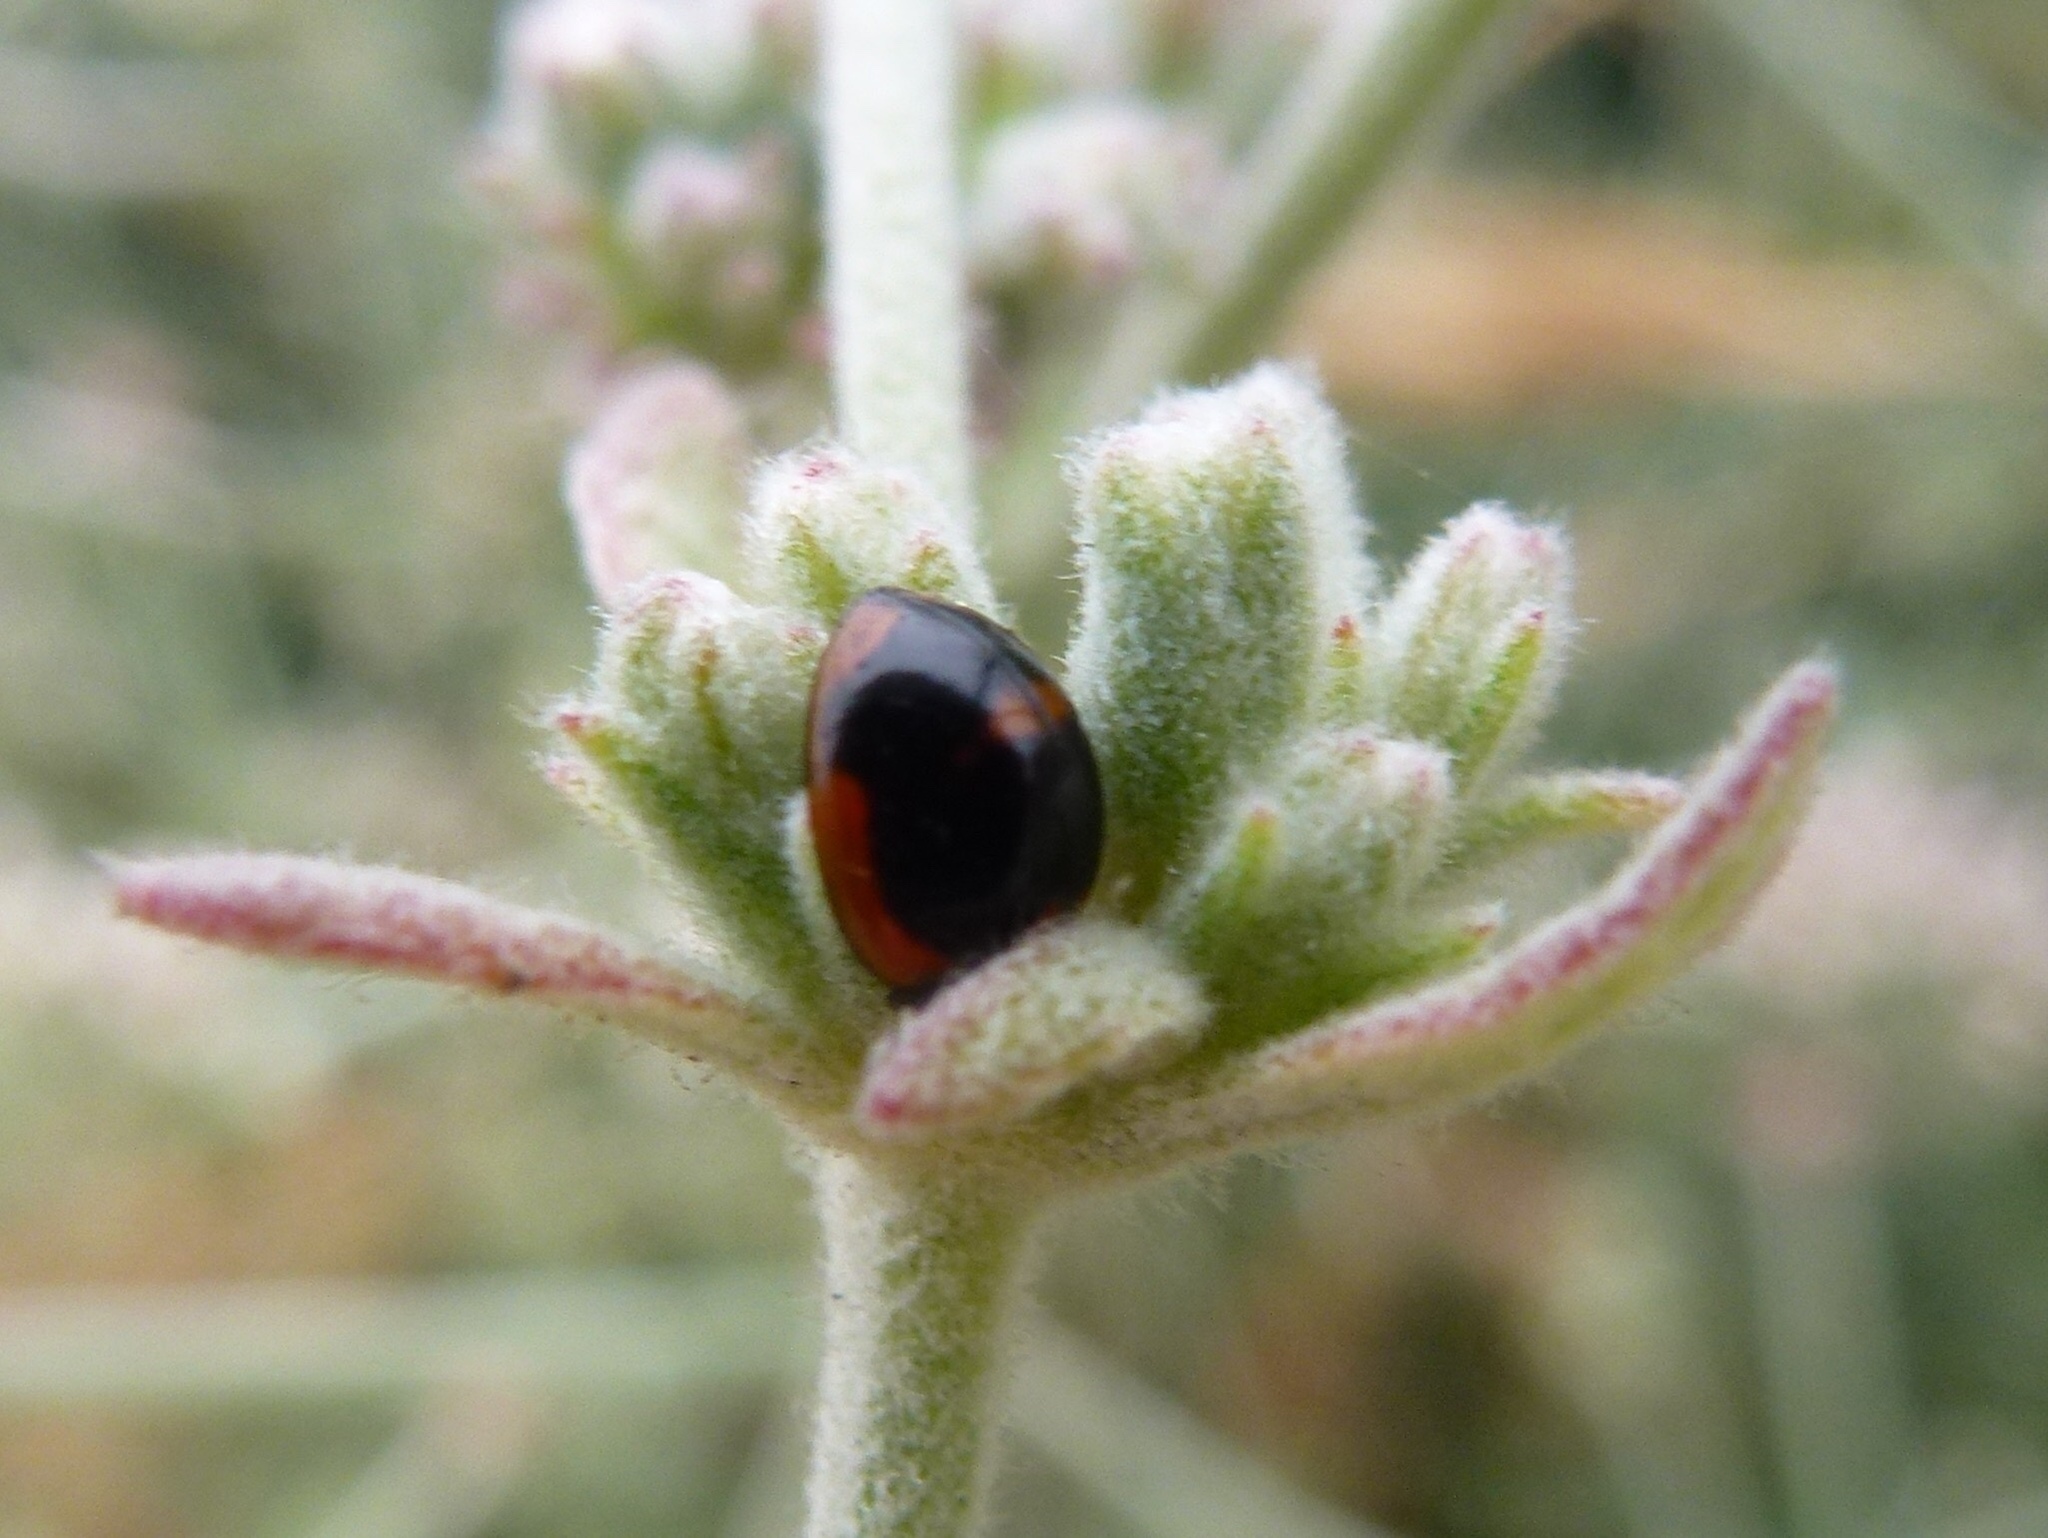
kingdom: Animalia
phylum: Arthropoda
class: Insecta
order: Coleoptera
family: Coccinellidae
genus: Exochomus
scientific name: Exochomus fasciatus
